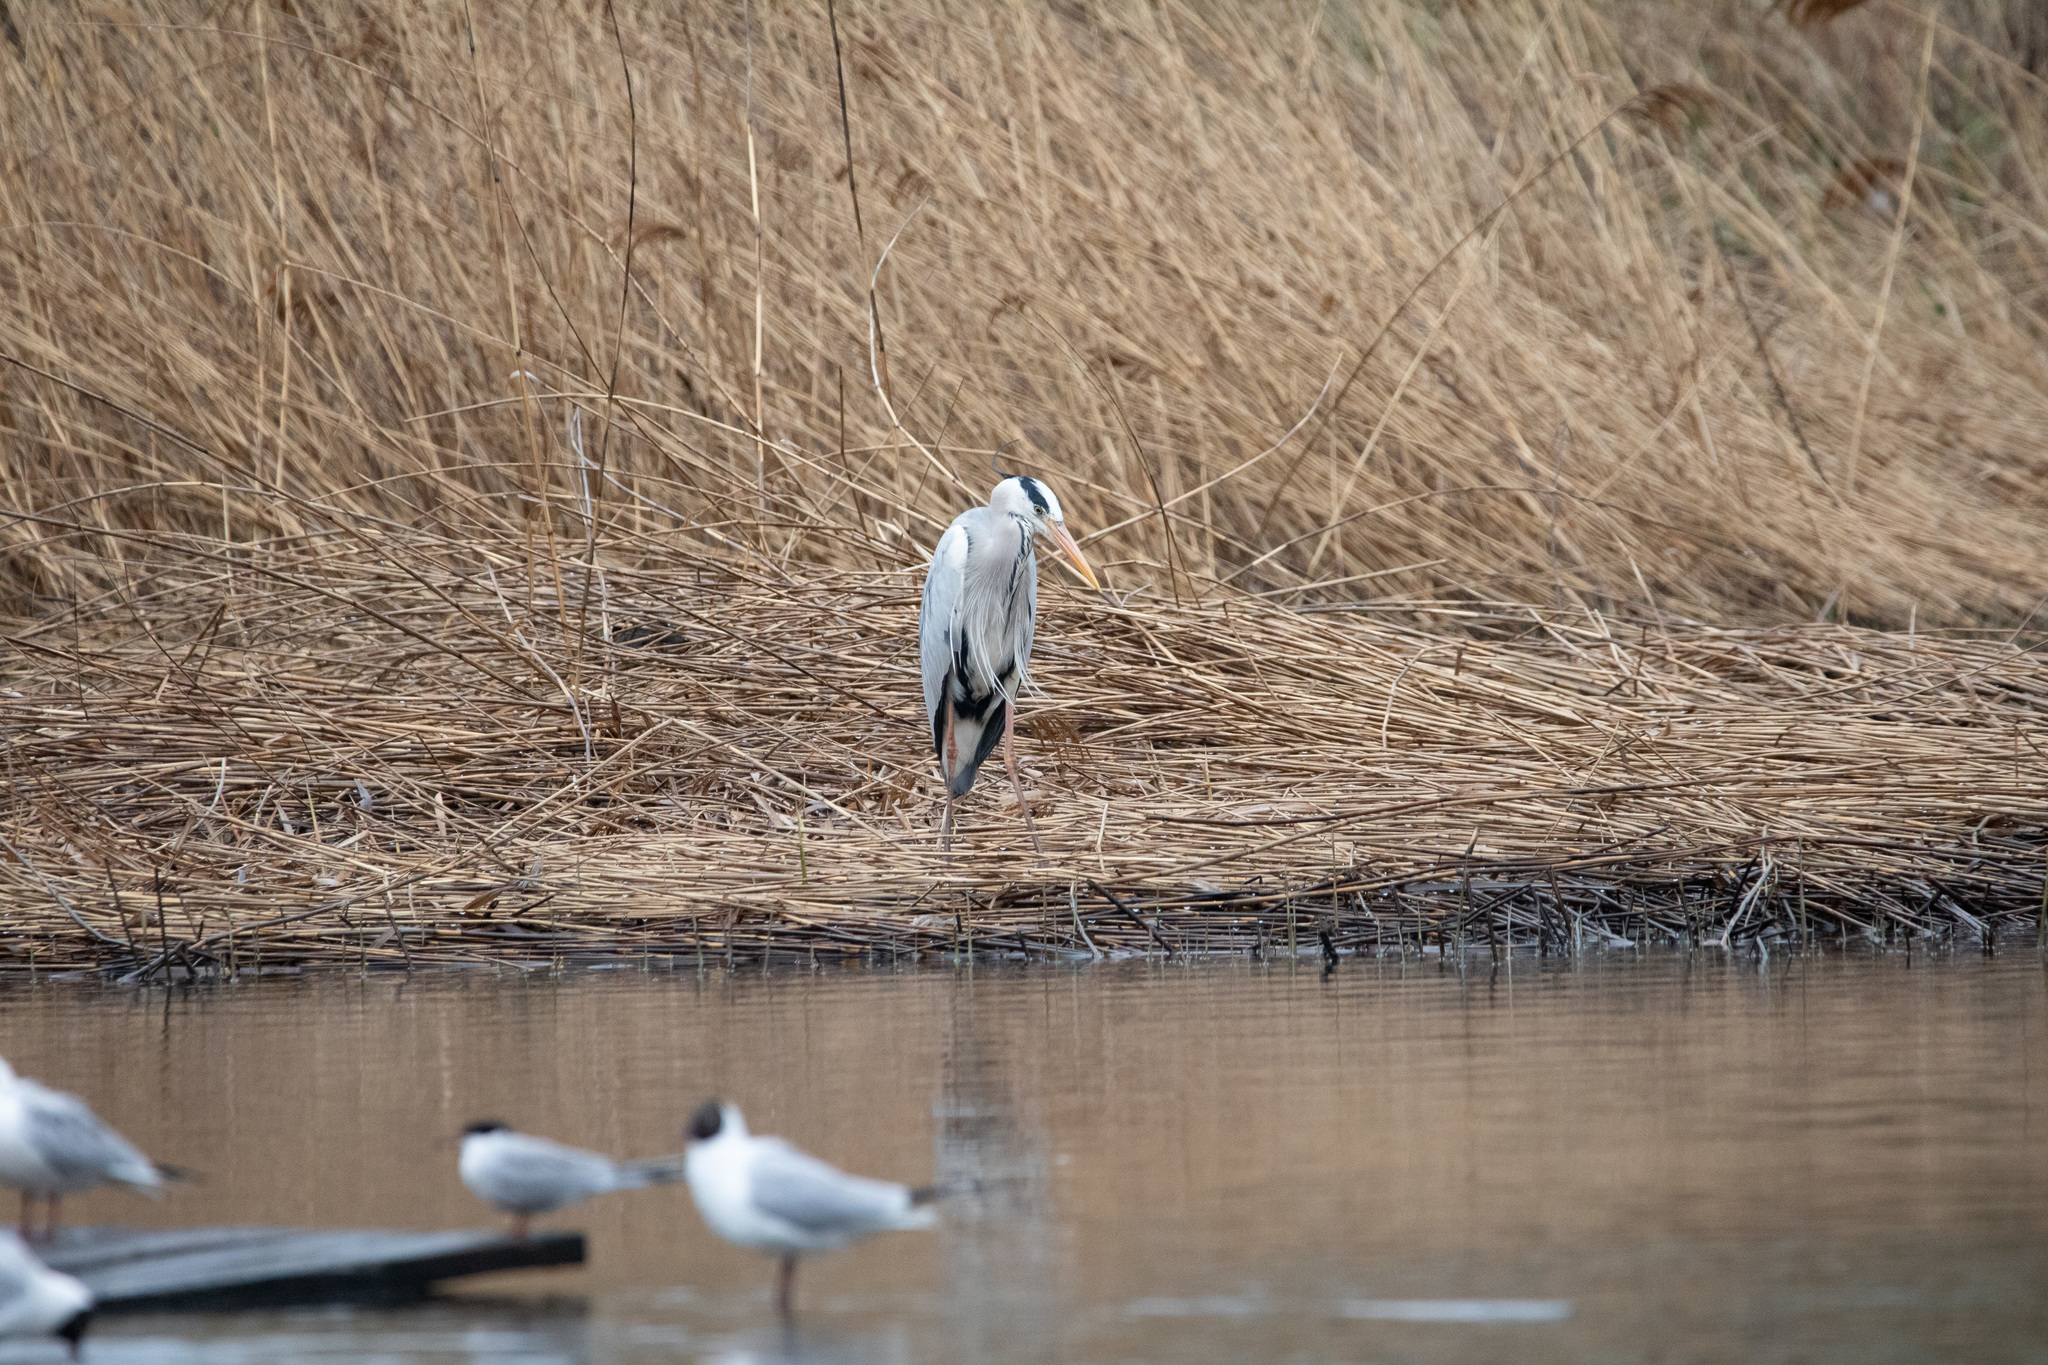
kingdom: Animalia
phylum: Chordata
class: Aves
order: Pelecaniformes
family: Ardeidae
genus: Ardea
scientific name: Ardea cinerea
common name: Grey heron
